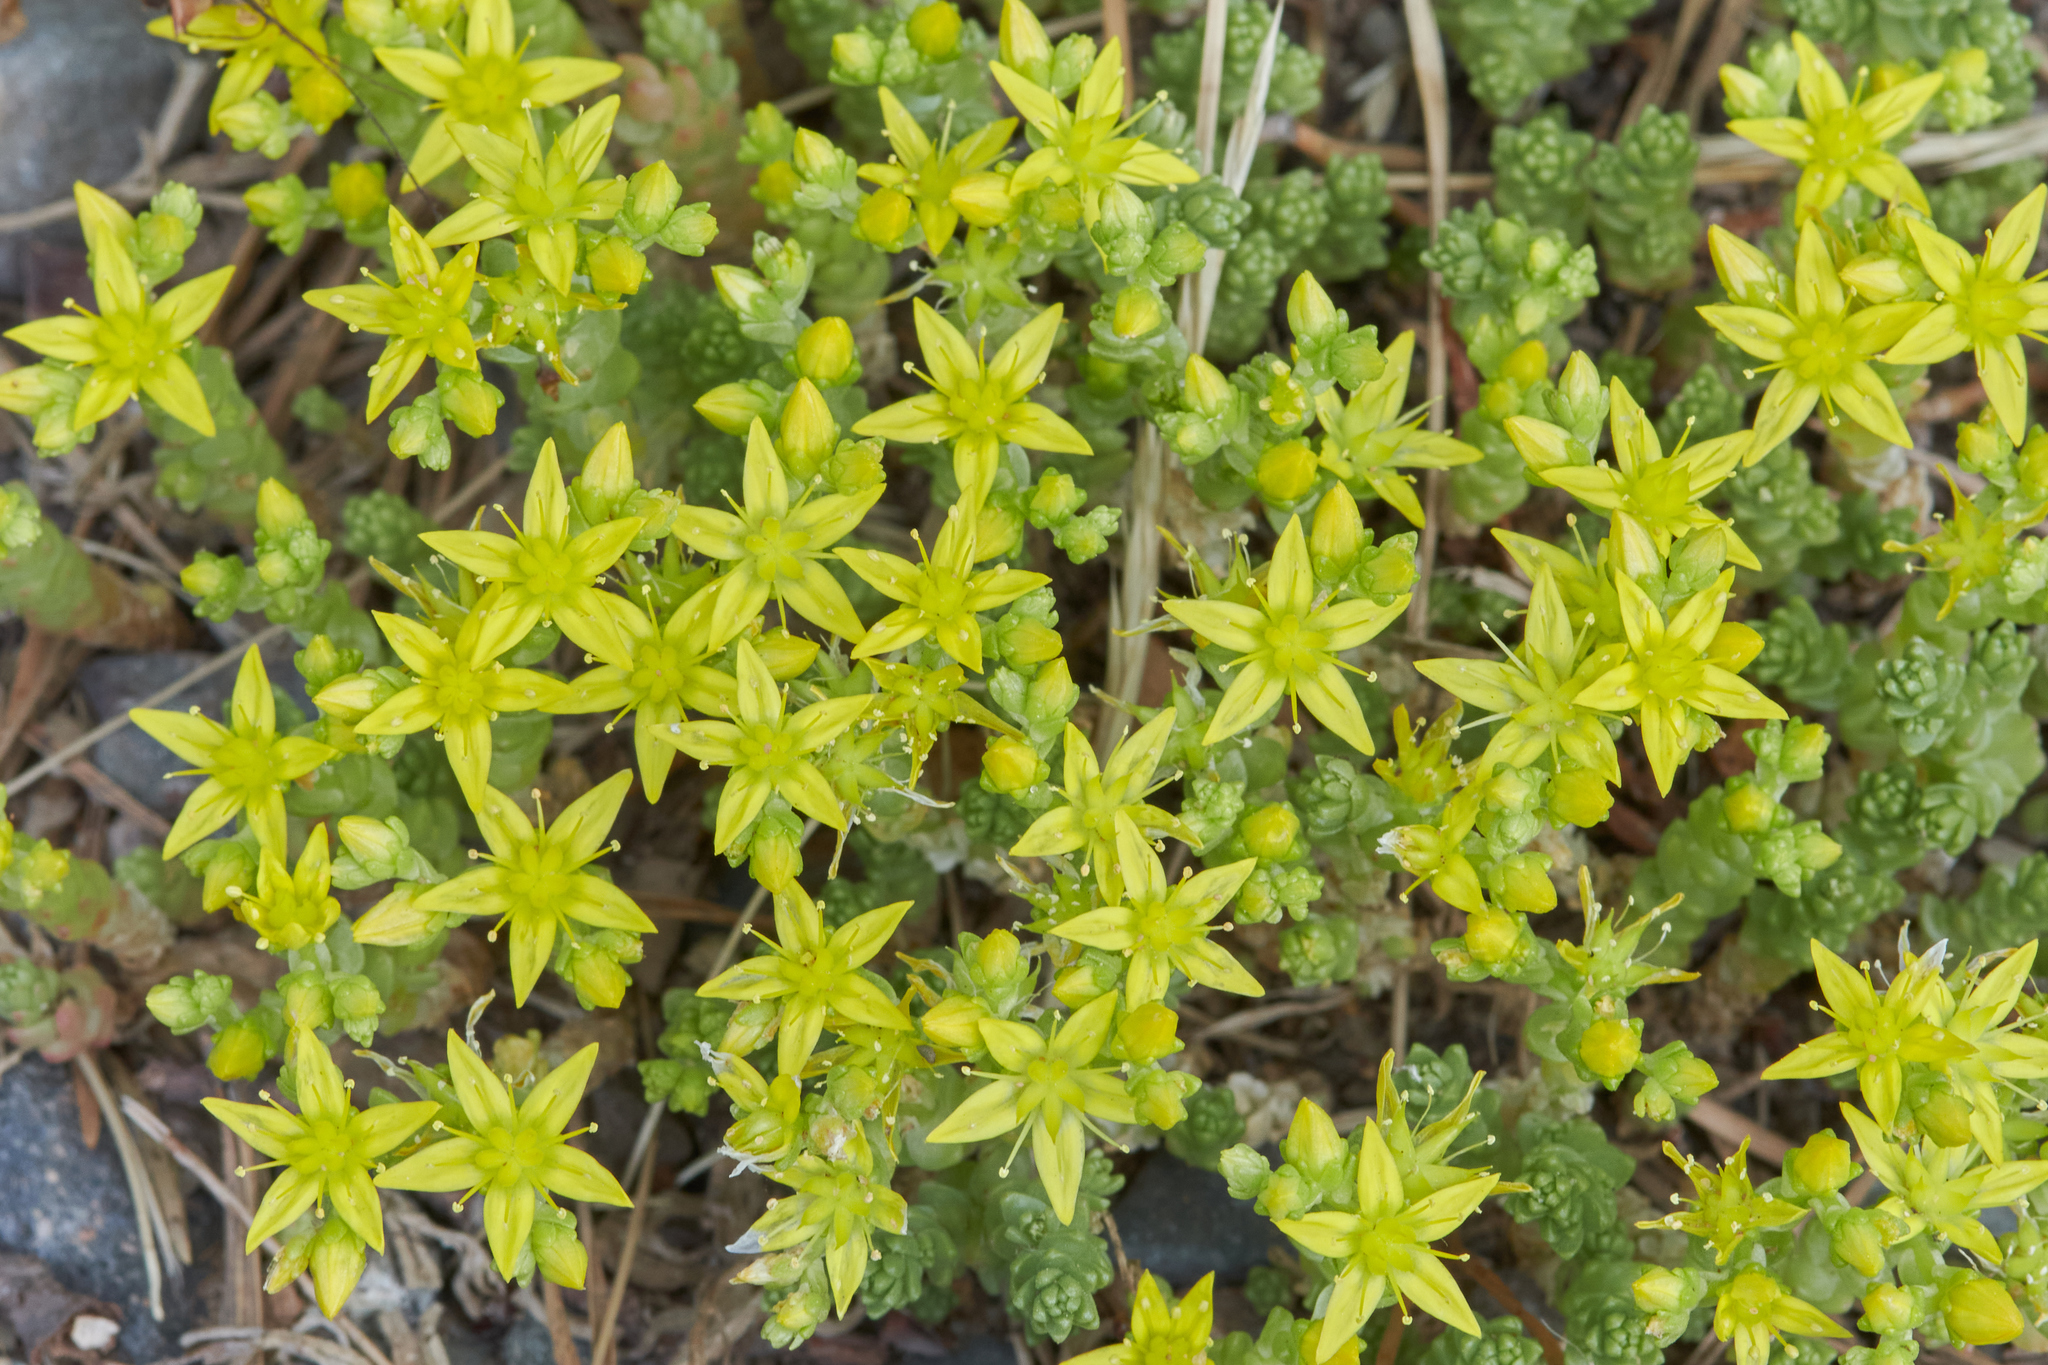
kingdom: Plantae
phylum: Tracheophyta
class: Magnoliopsida
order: Saxifragales
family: Crassulaceae
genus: Sedum
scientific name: Sedum acre
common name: Biting stonecrop
